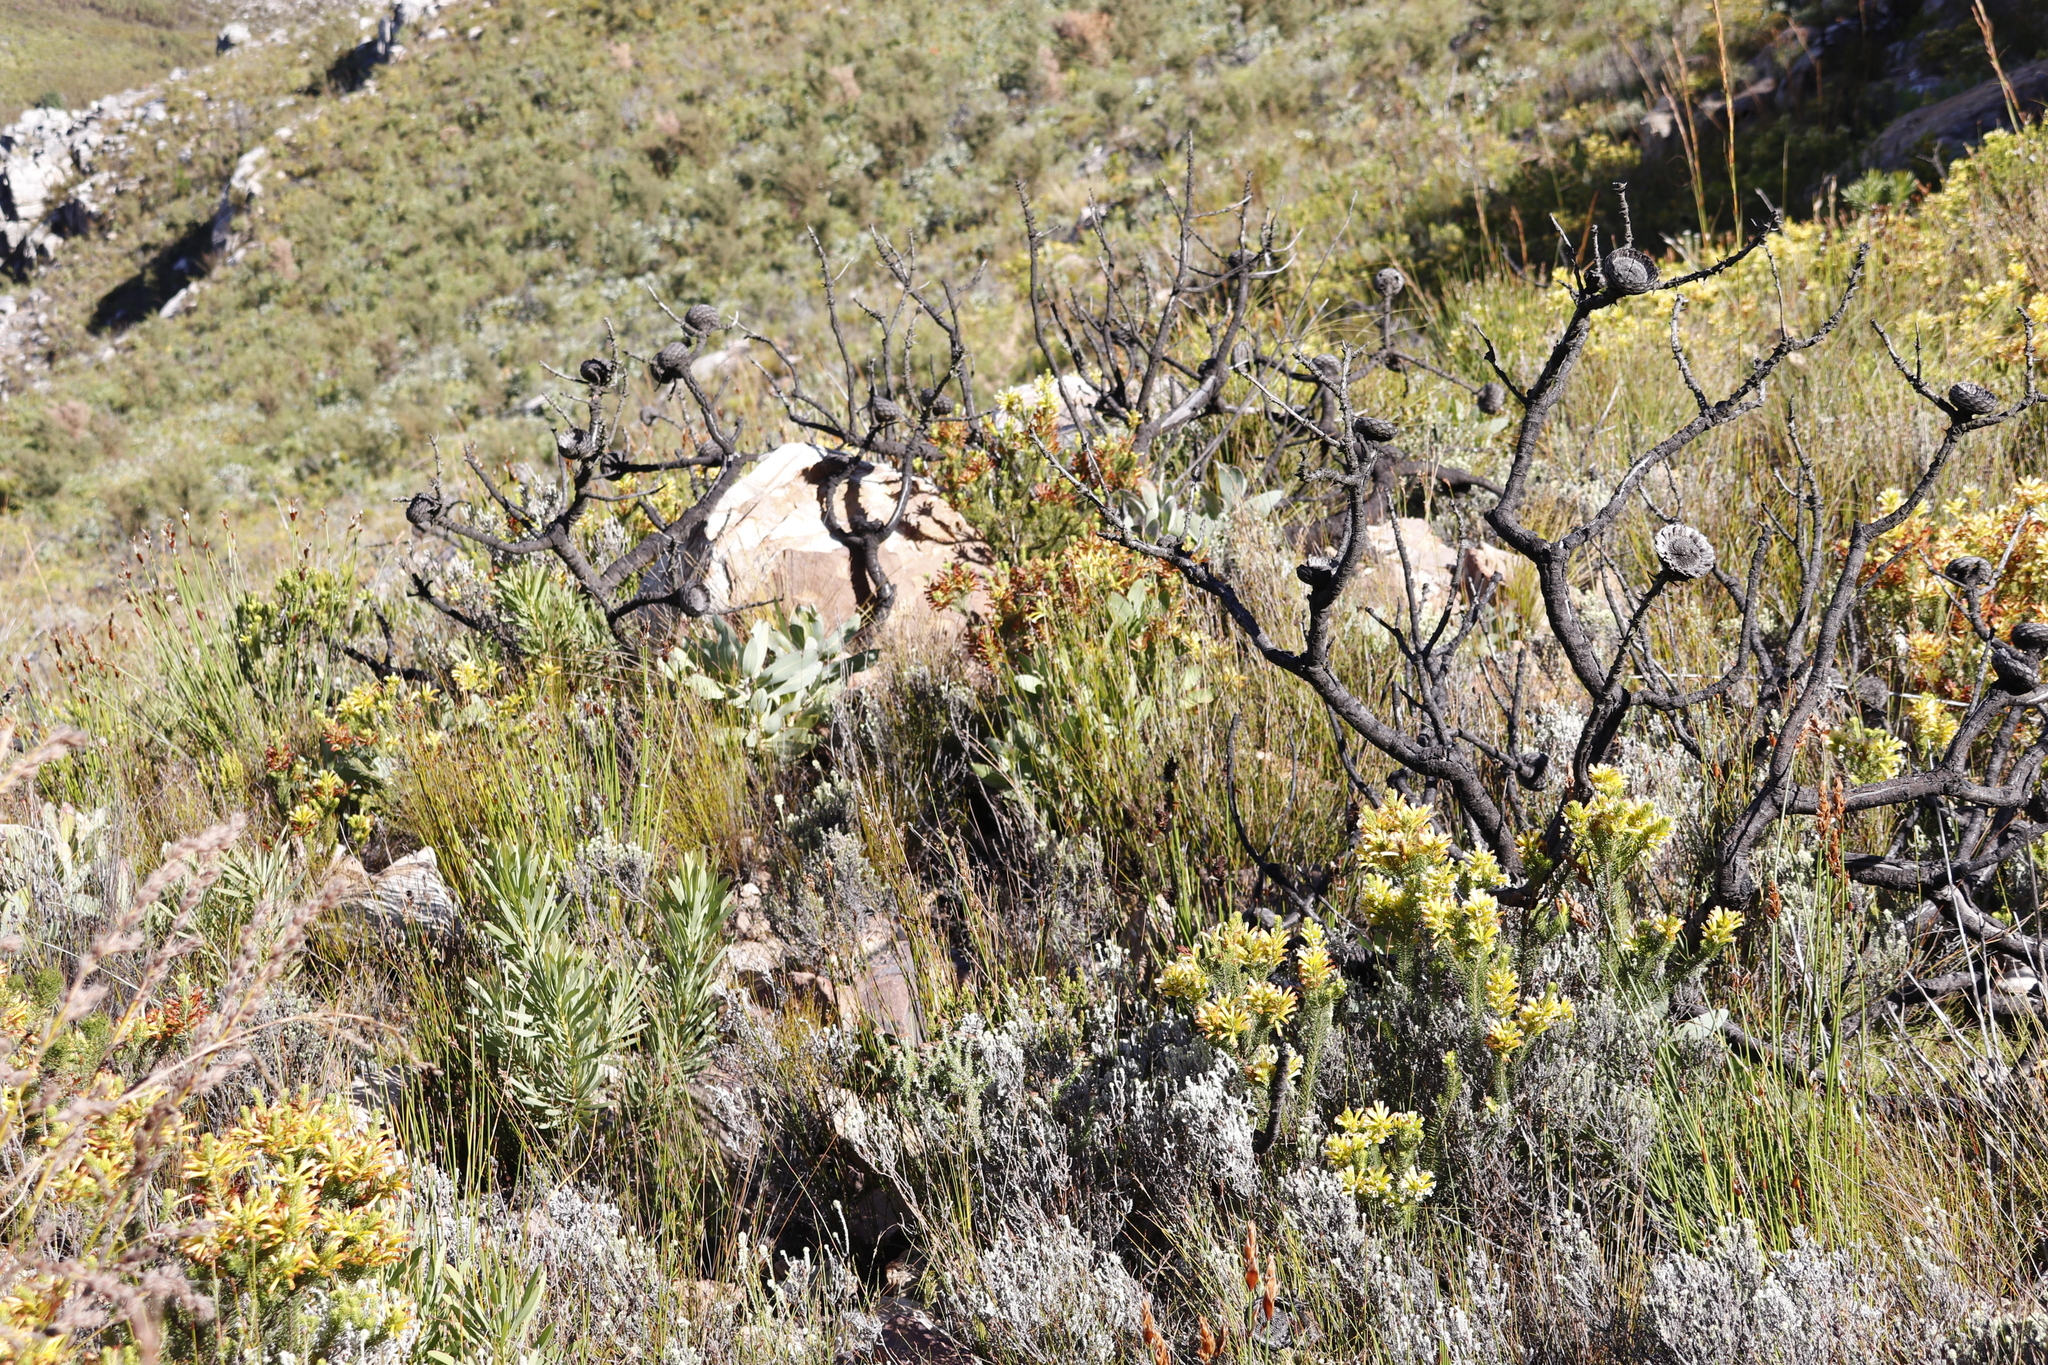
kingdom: Plantae
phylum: Tracheophyta
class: Magnoliopsida
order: Proteales
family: Proteaceae
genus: Protea
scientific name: Protea magnifica
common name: Bearded sugarbush
